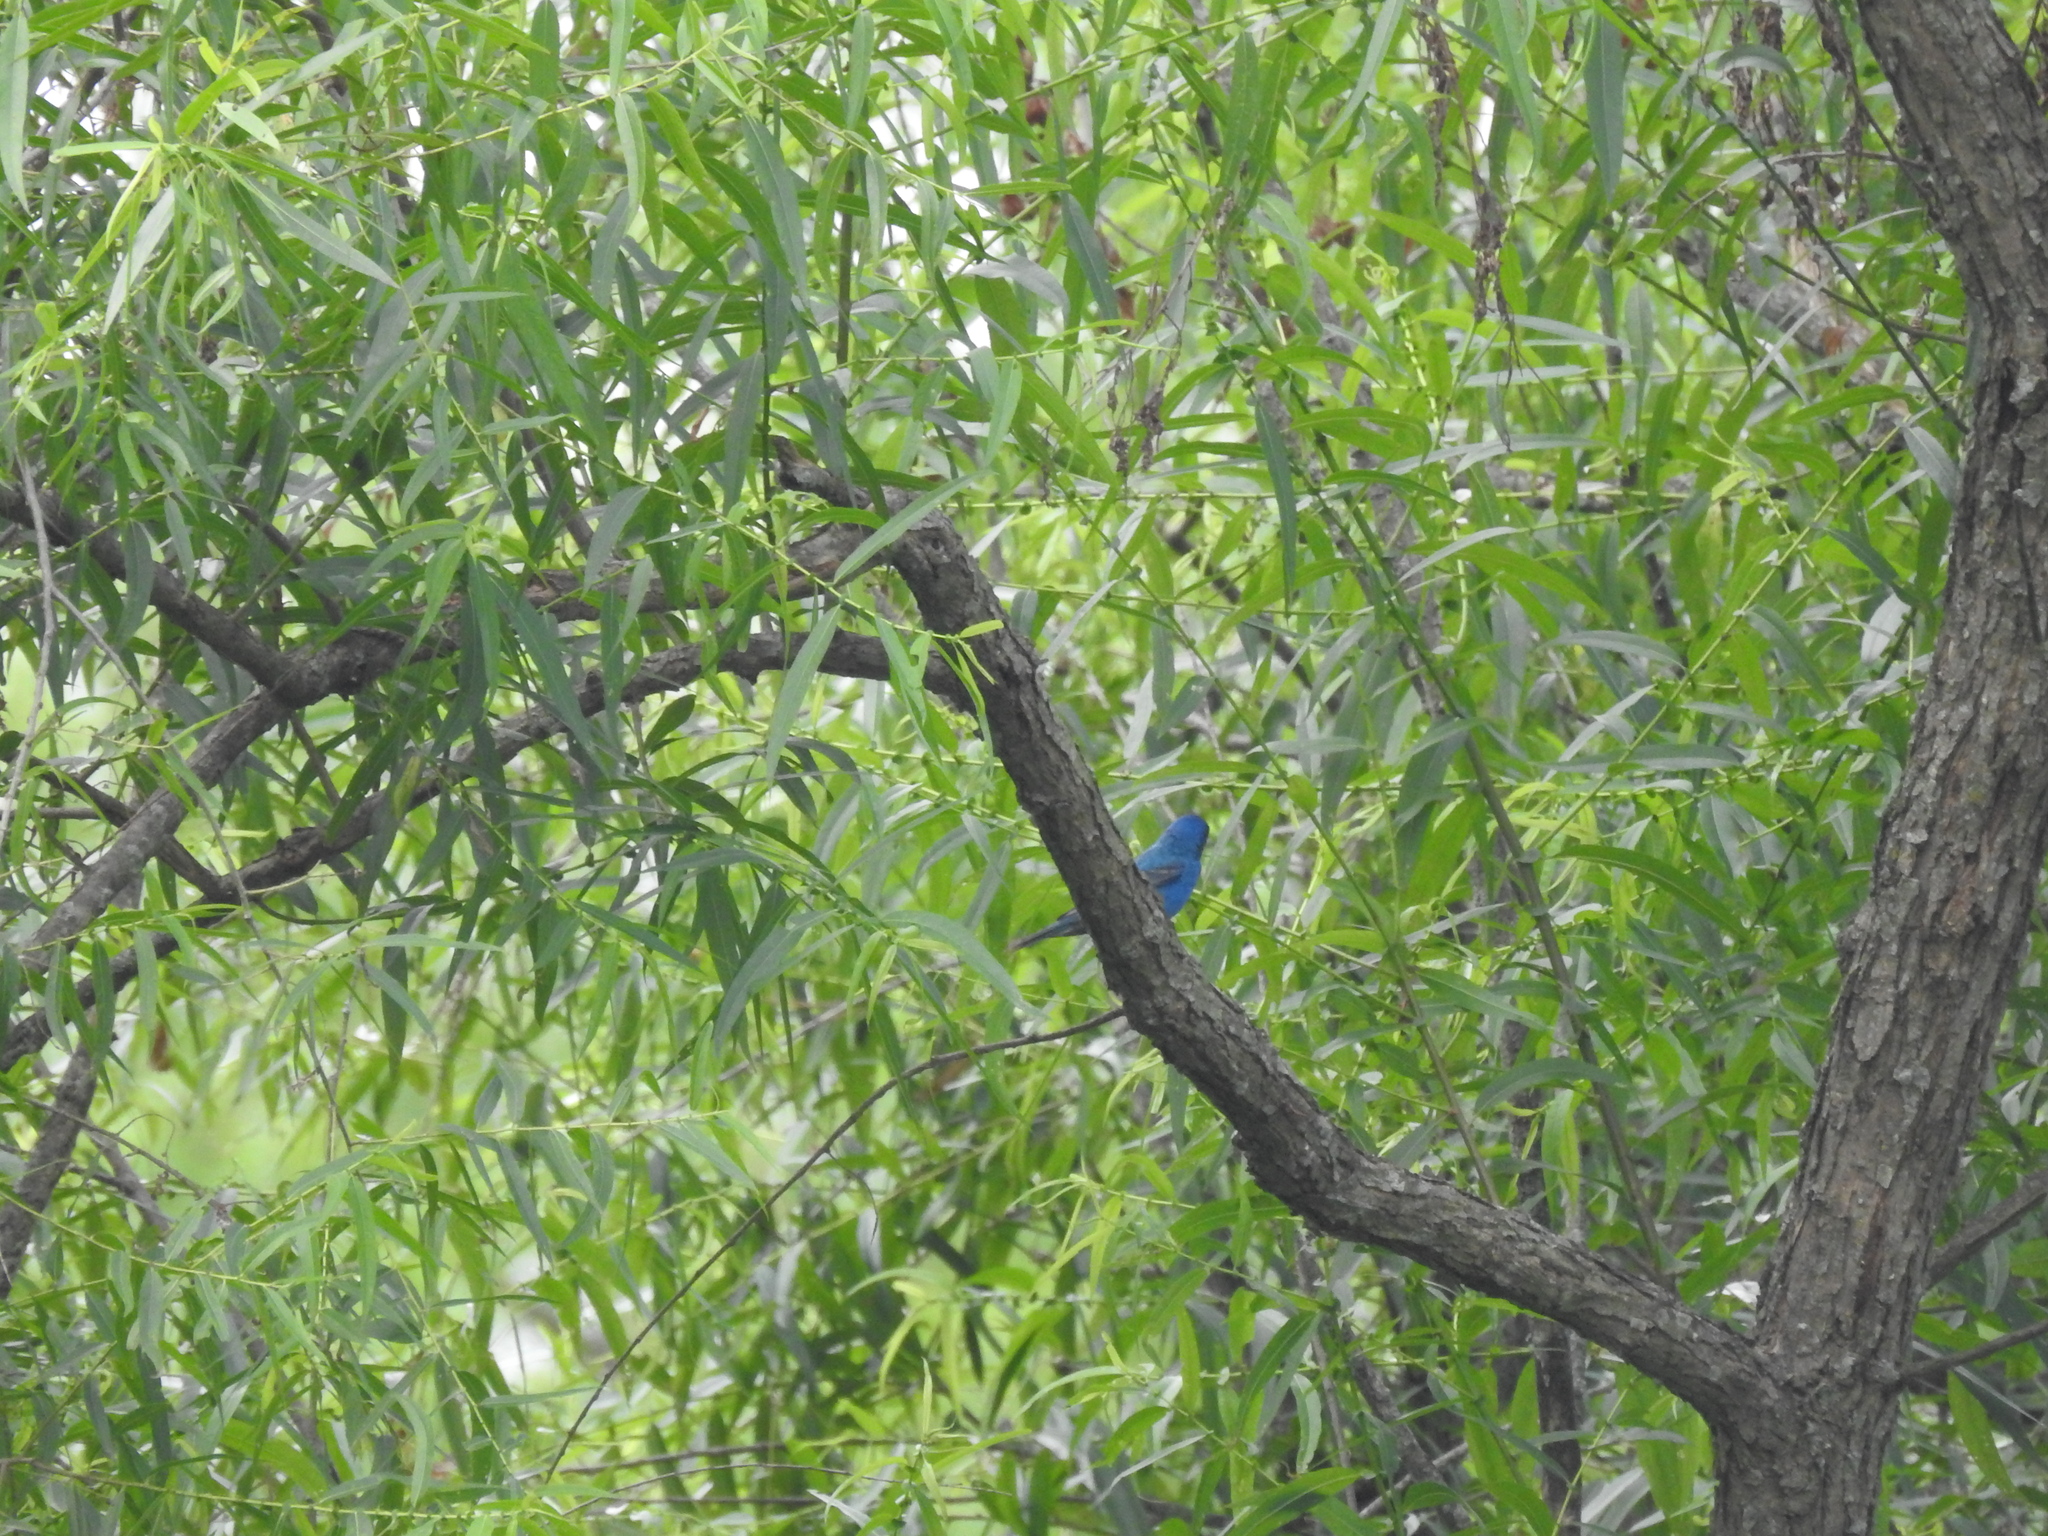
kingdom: Animalia
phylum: Chordata
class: Aves
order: Passeriformes
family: Cardinalidae
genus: Passerina
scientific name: Passerina cyanea
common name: Indigo bunting
